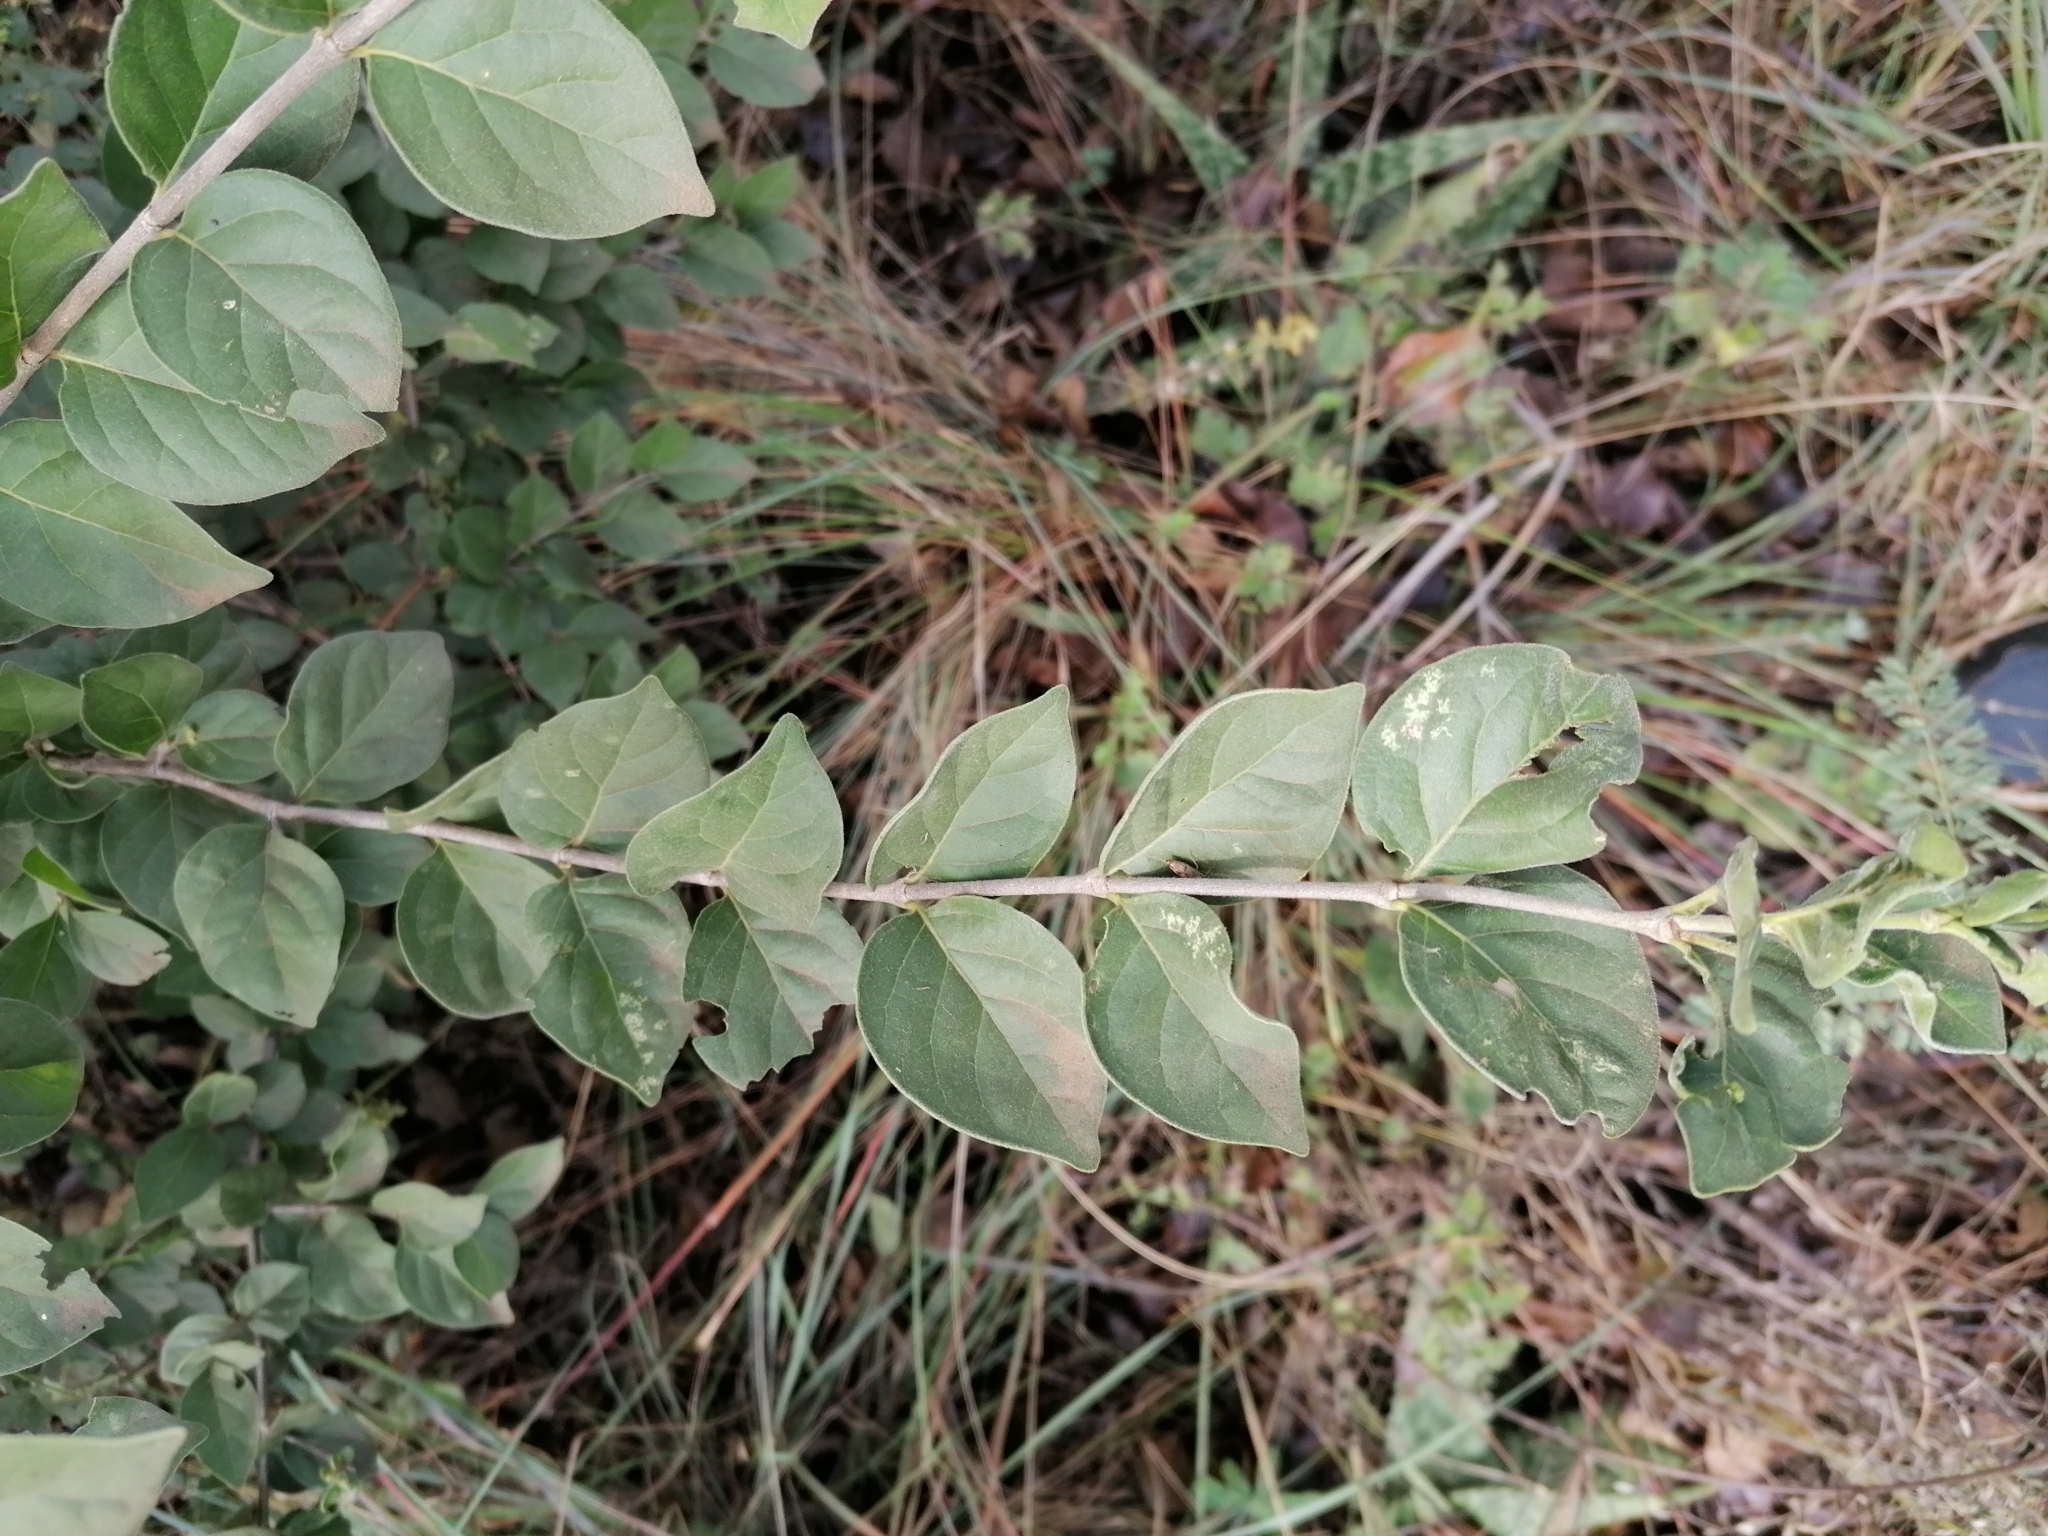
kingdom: Plantae
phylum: Tracheophyta
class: Magnoliopsida
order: Gentianales
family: Rubiaceae
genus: Afrocanthium
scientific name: Afrocanthium gilfillanii
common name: Velvet rock-alder
